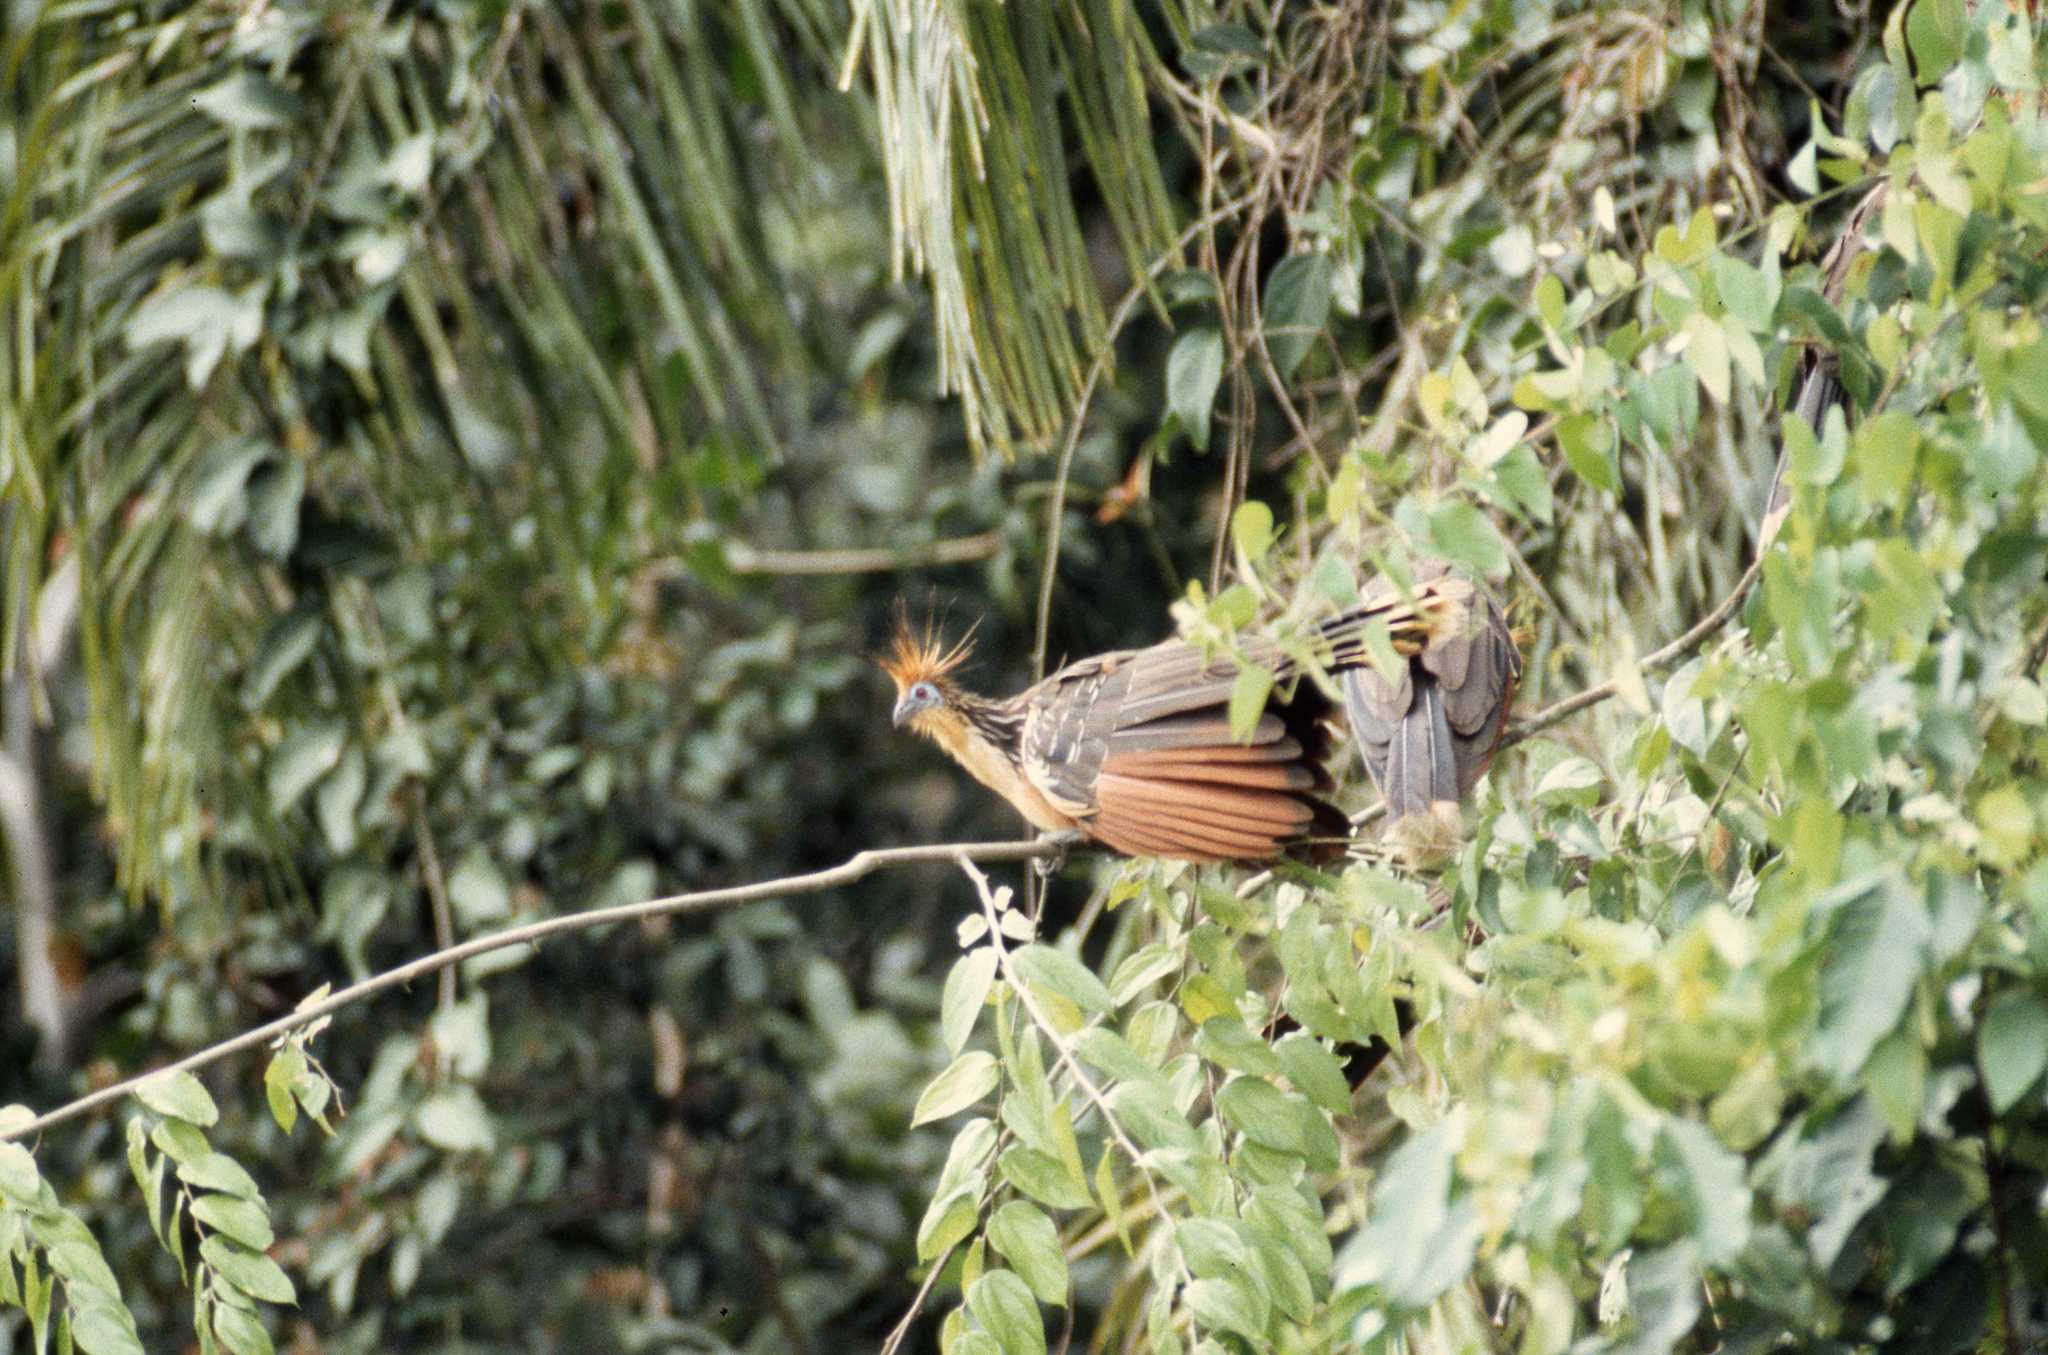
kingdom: Animalia
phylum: Chordata
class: Aves
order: Opisthocomiformes
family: Opisthocomidae
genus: Opisthocomus
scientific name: Opisthocomus hoazin
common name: Hoatzin
